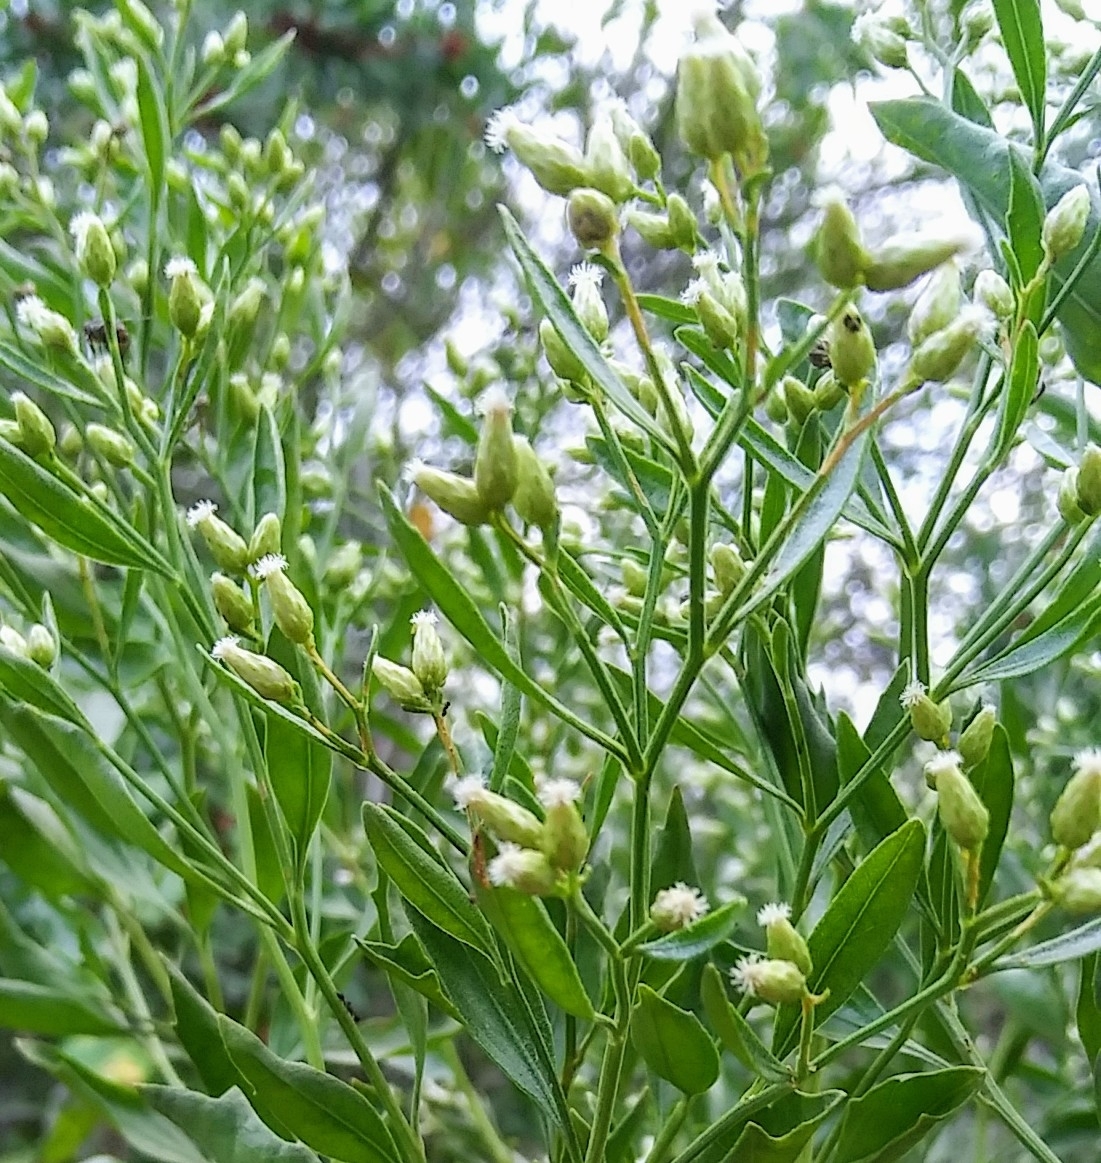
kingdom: Plantae
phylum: Tracheophyta
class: Magnoliopsida
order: Asterales
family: Asteraceae
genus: Baccharis
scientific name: Baccharis halimifolia
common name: Eastern baccharis
